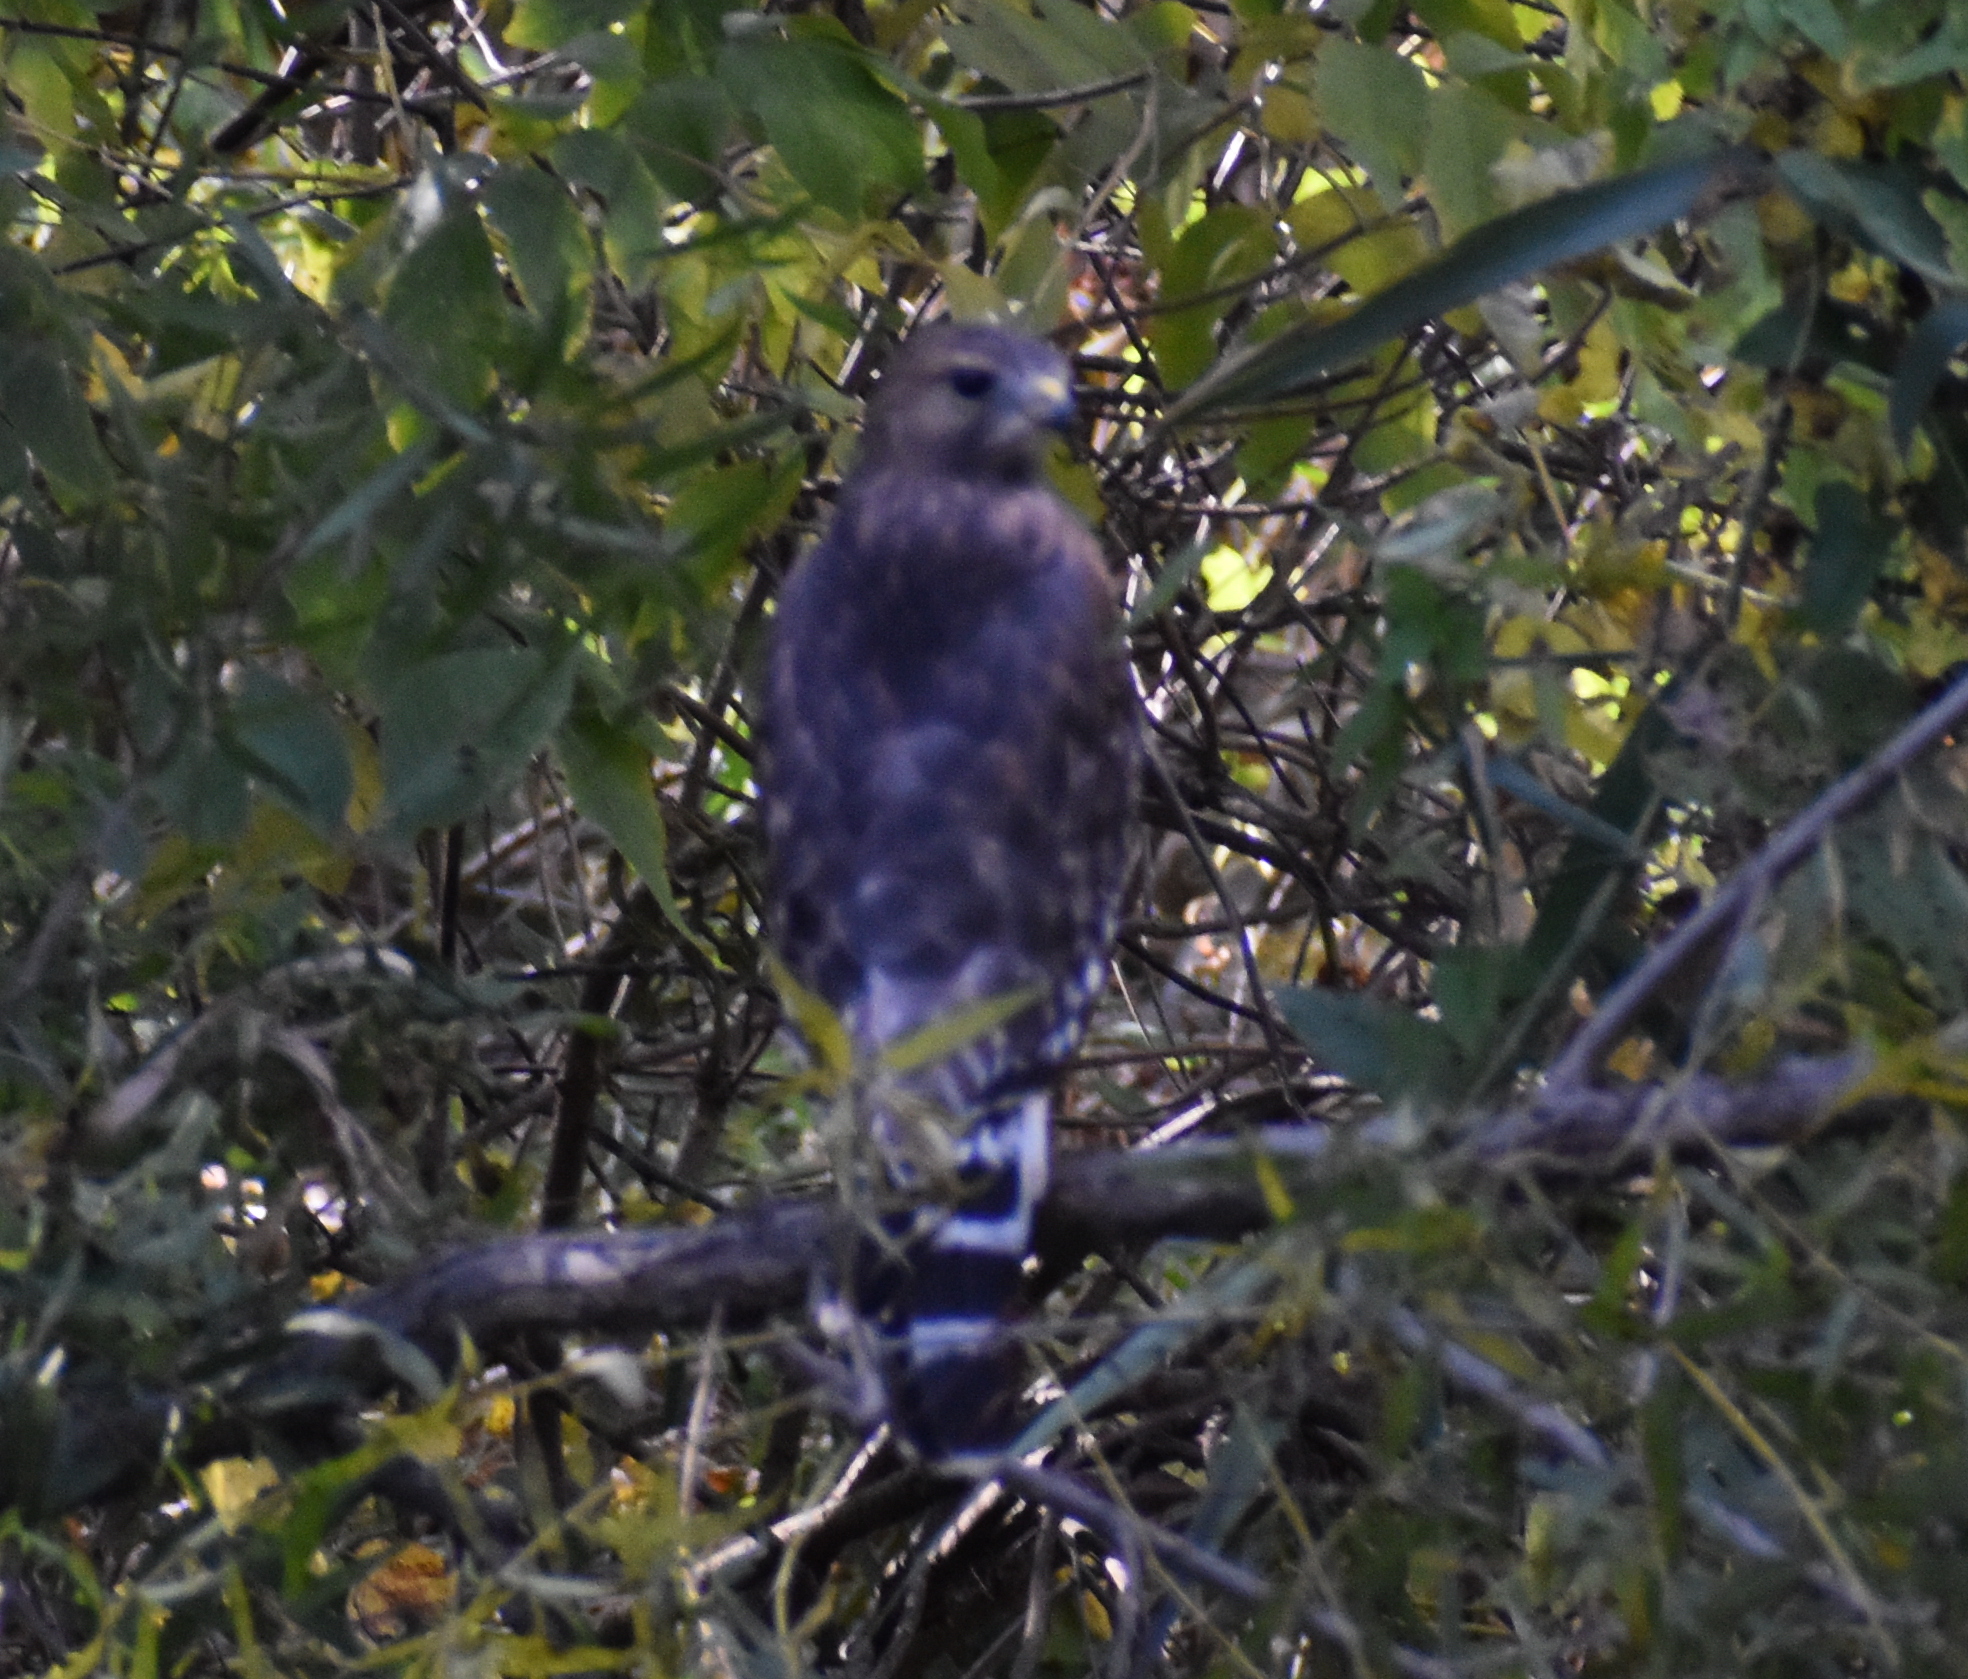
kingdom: Animalia
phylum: Chordata
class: Aves
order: Accipitriformes
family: Accipitridae
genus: Buteo
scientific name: Buteo lineatus
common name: Red-shouldered hawk
